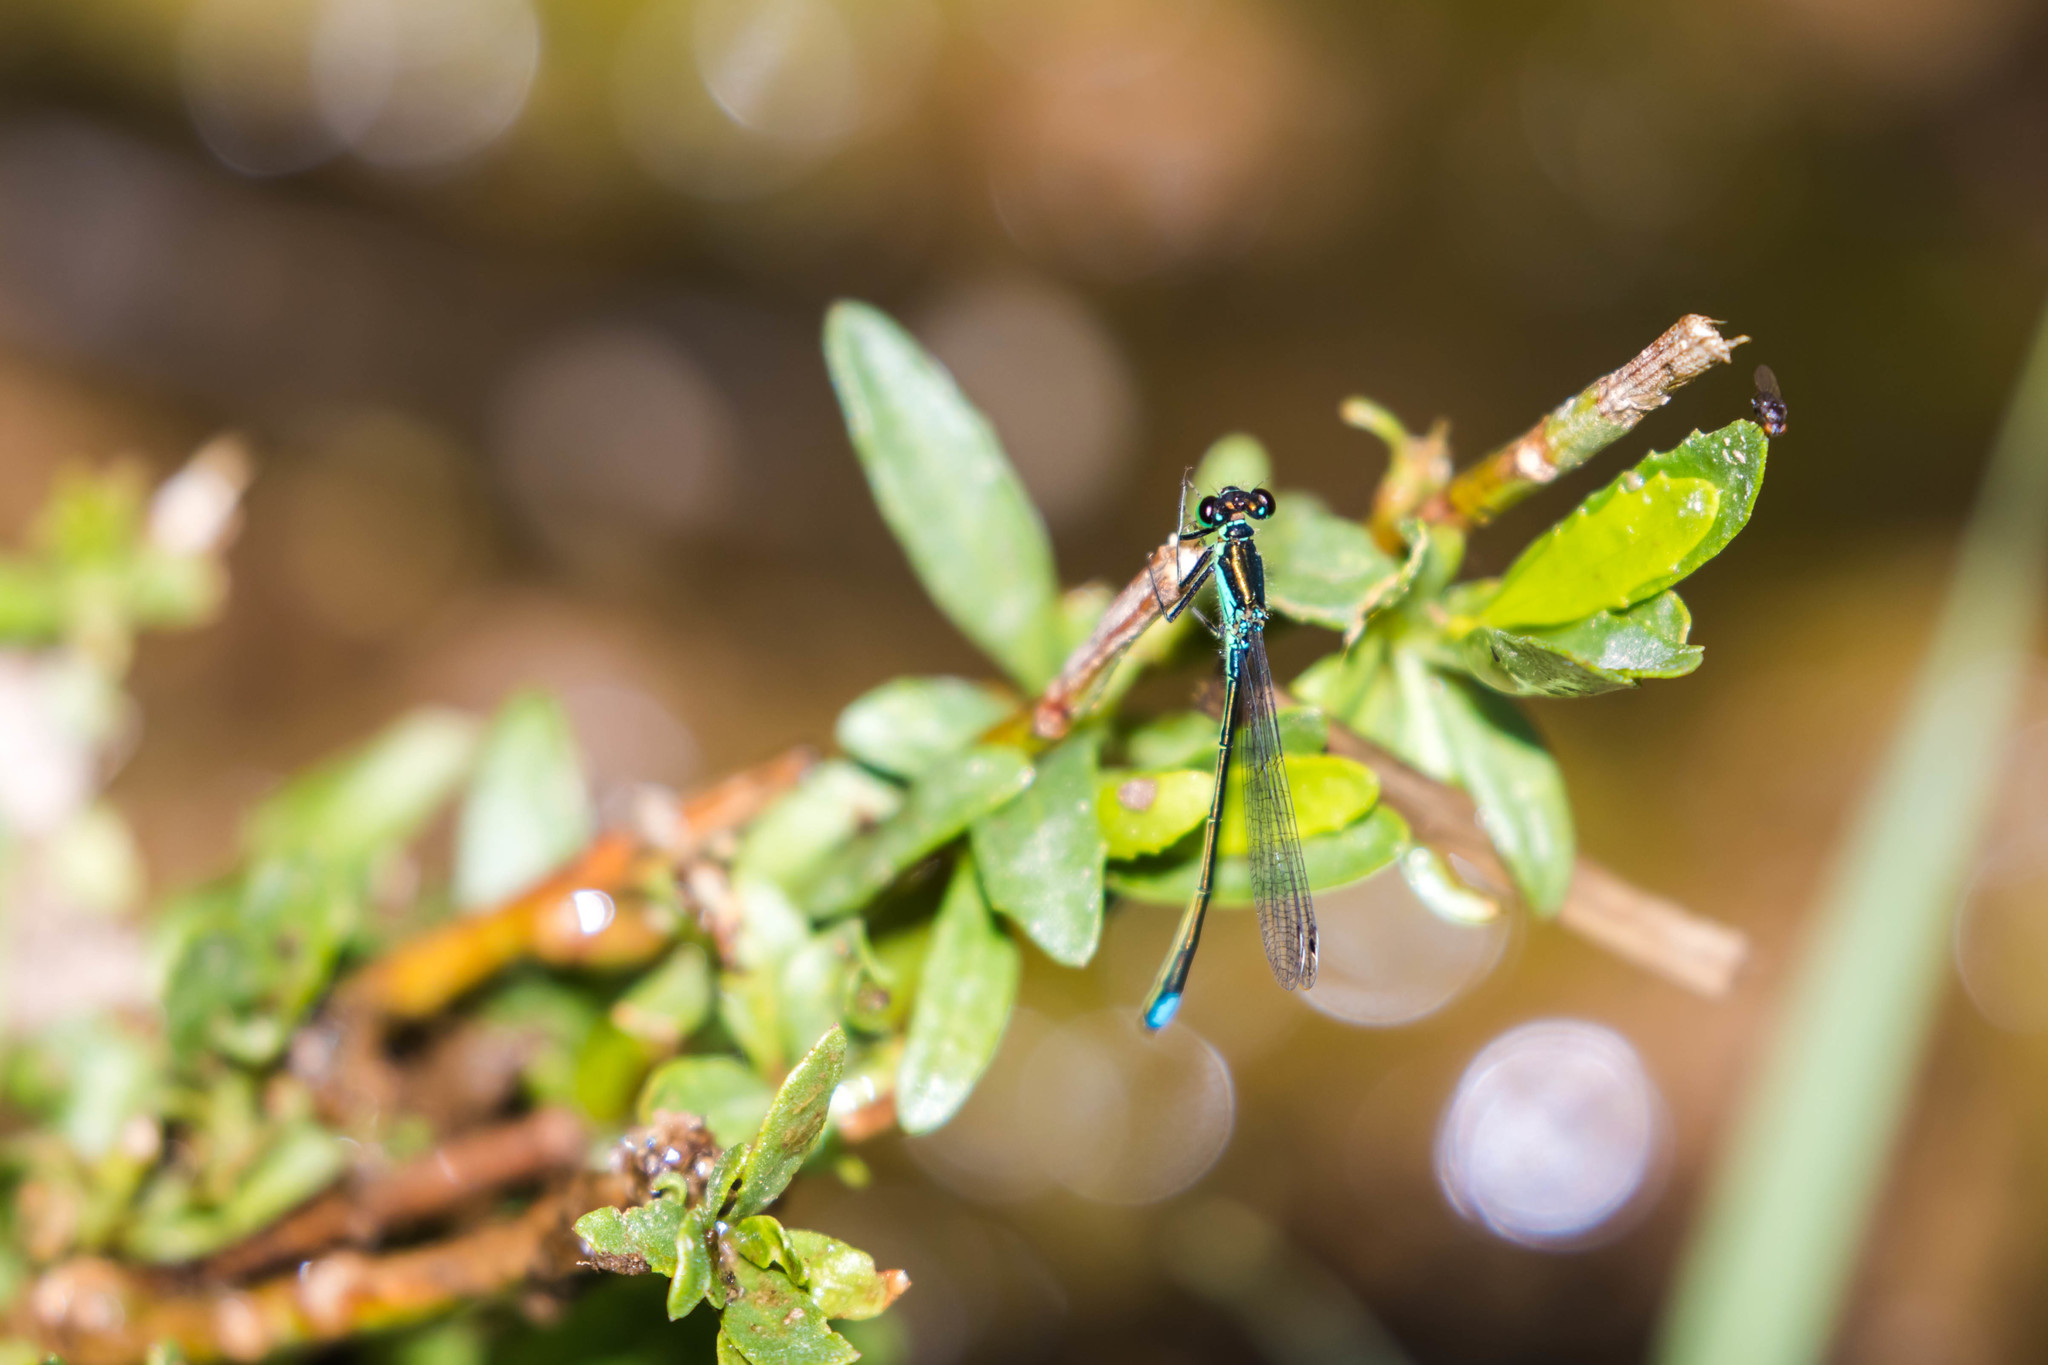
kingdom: Animalia
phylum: Arthropoda
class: Insecta
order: Odonata
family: Coenagrionidae
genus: Ischnura
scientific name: Ischnura denticollis
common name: Black-fronted forktail
